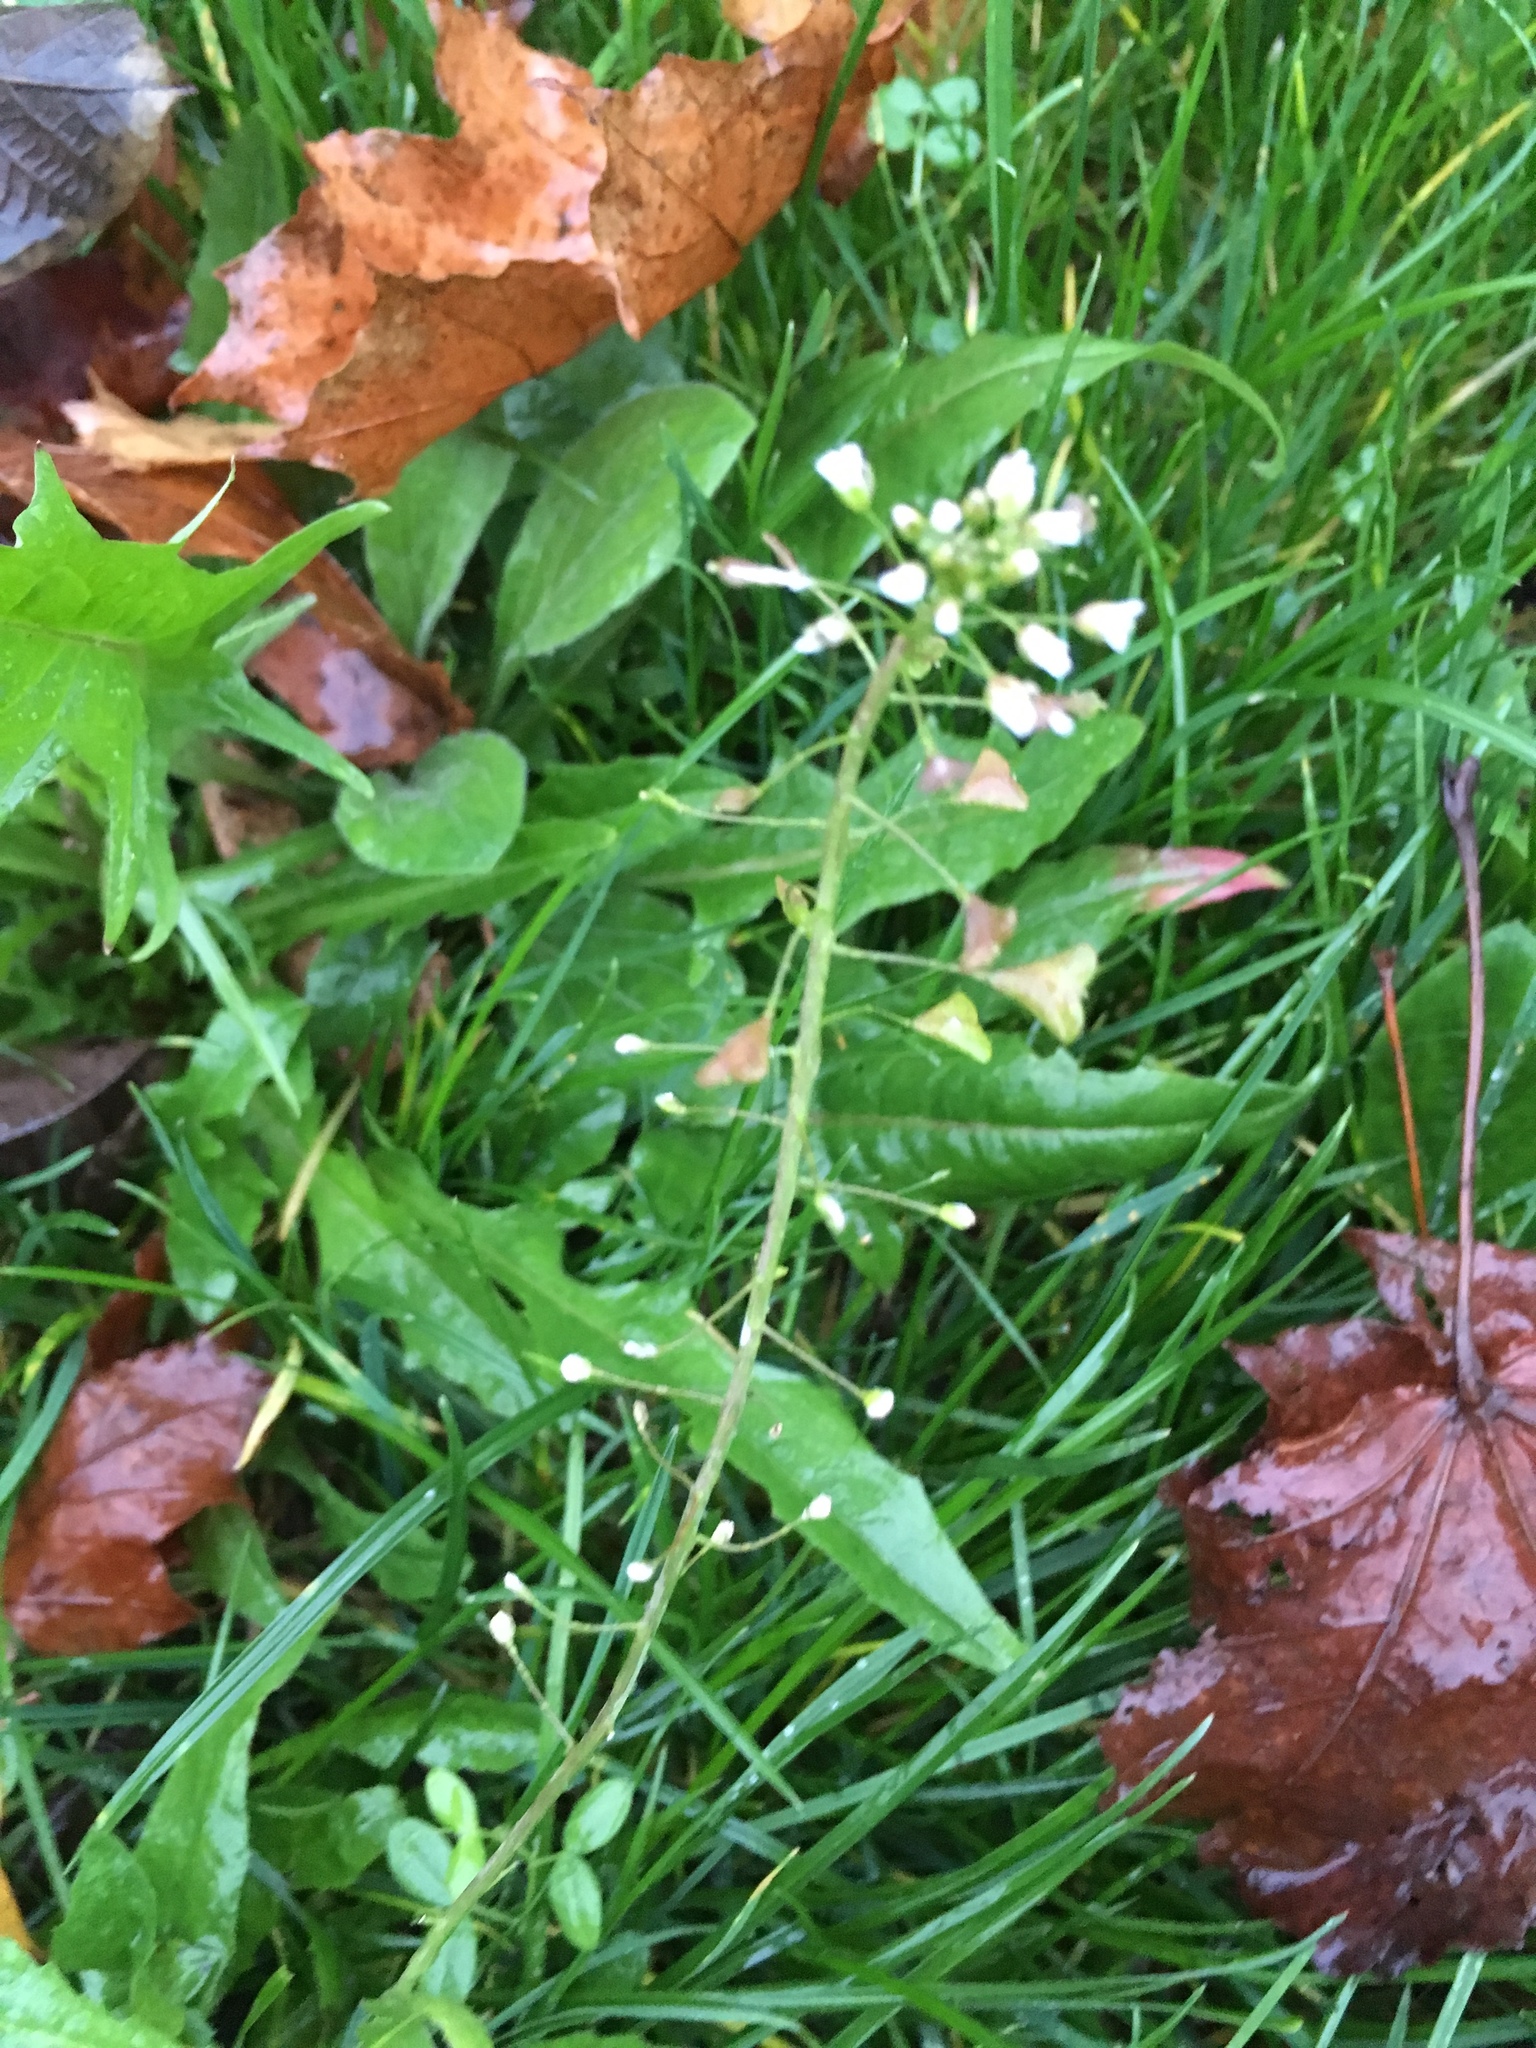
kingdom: Plantae
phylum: Tracheophyta
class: Magnoliopsida
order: Brassicales
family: Brassicaceae
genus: Capsella
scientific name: Capsella bursa-pastoris
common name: Shepherd's purse
